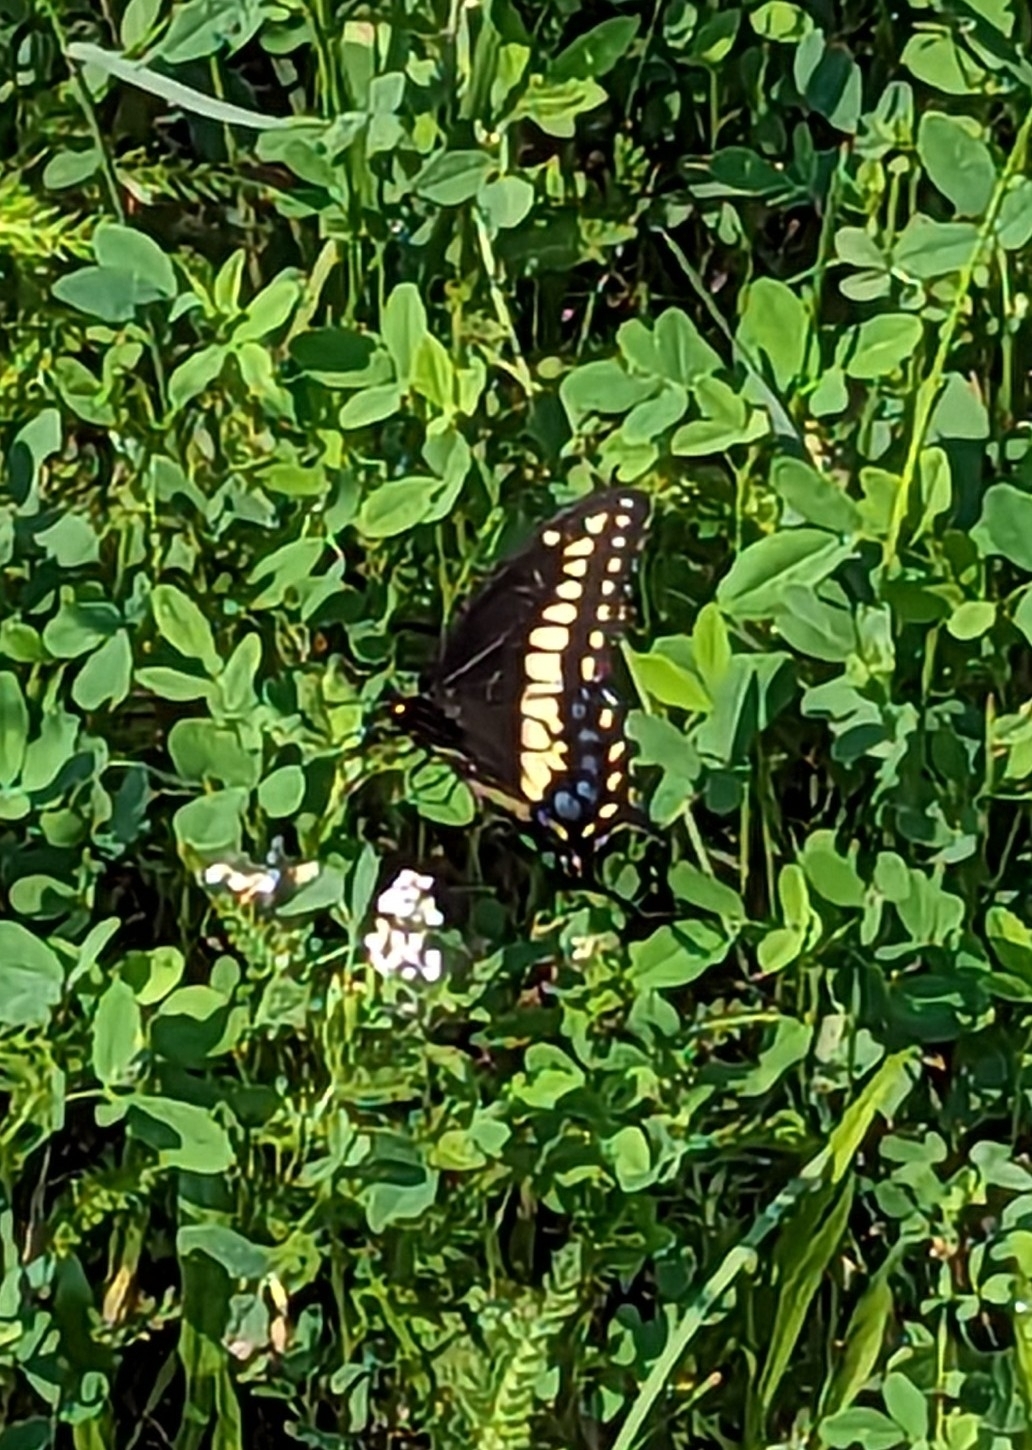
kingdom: Animalia
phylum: Arthropoda
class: Insecta
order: Lepidoptera
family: Papilionidae
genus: Papilio
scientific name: Papilio polyxenes
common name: Black swallowtail
